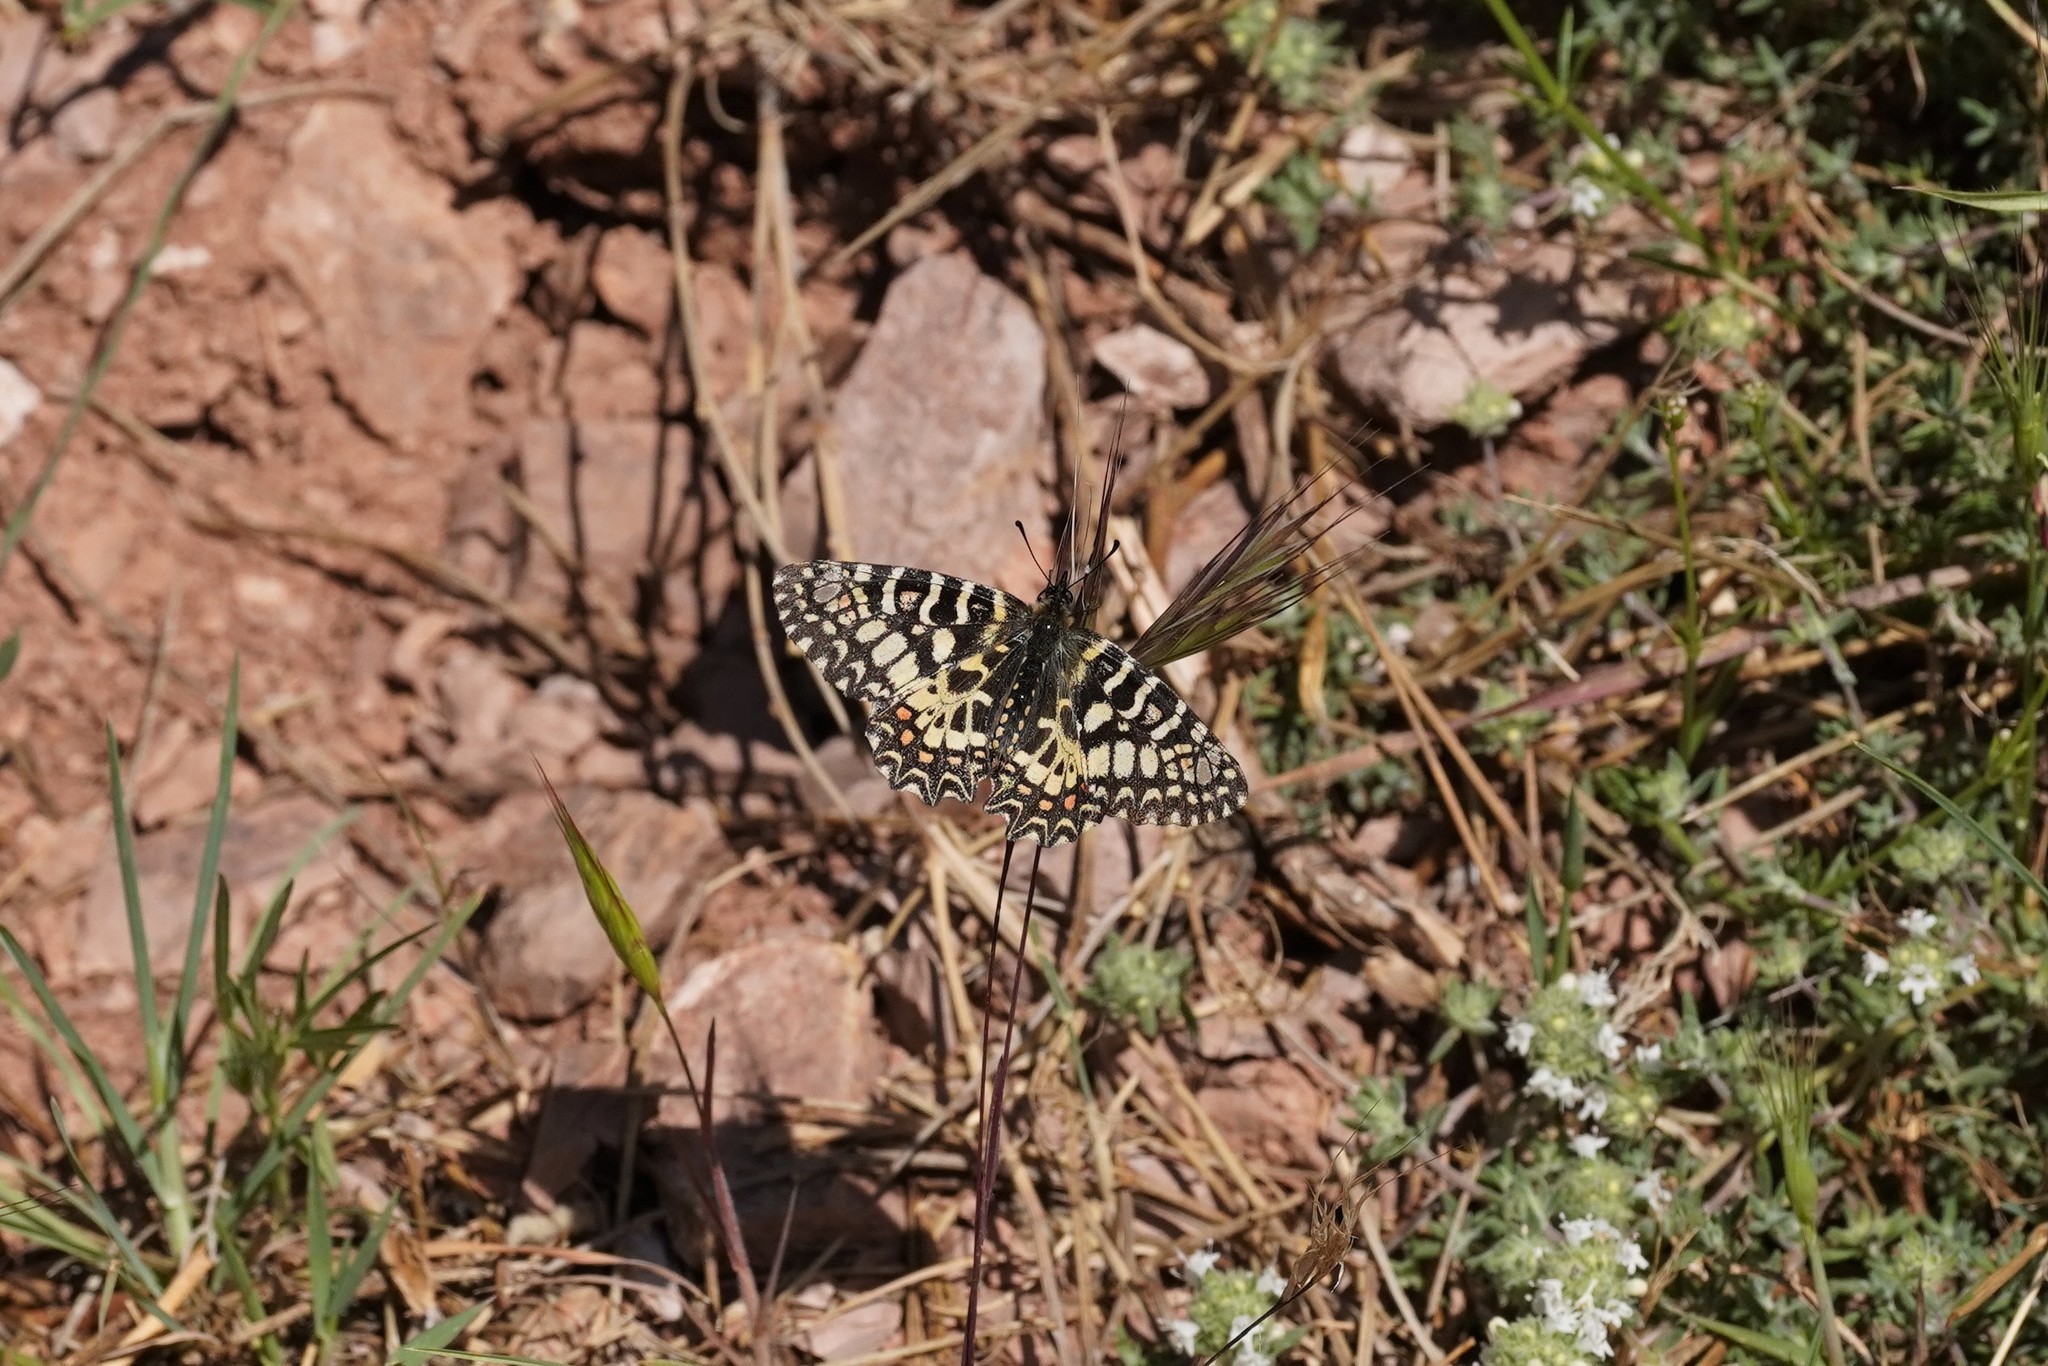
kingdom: Animalia
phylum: Arthropoda
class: Insecta
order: Lepidoptera
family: Papilionidae
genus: Zerynthia
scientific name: Zerynthia rumina
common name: Spanish festoon
